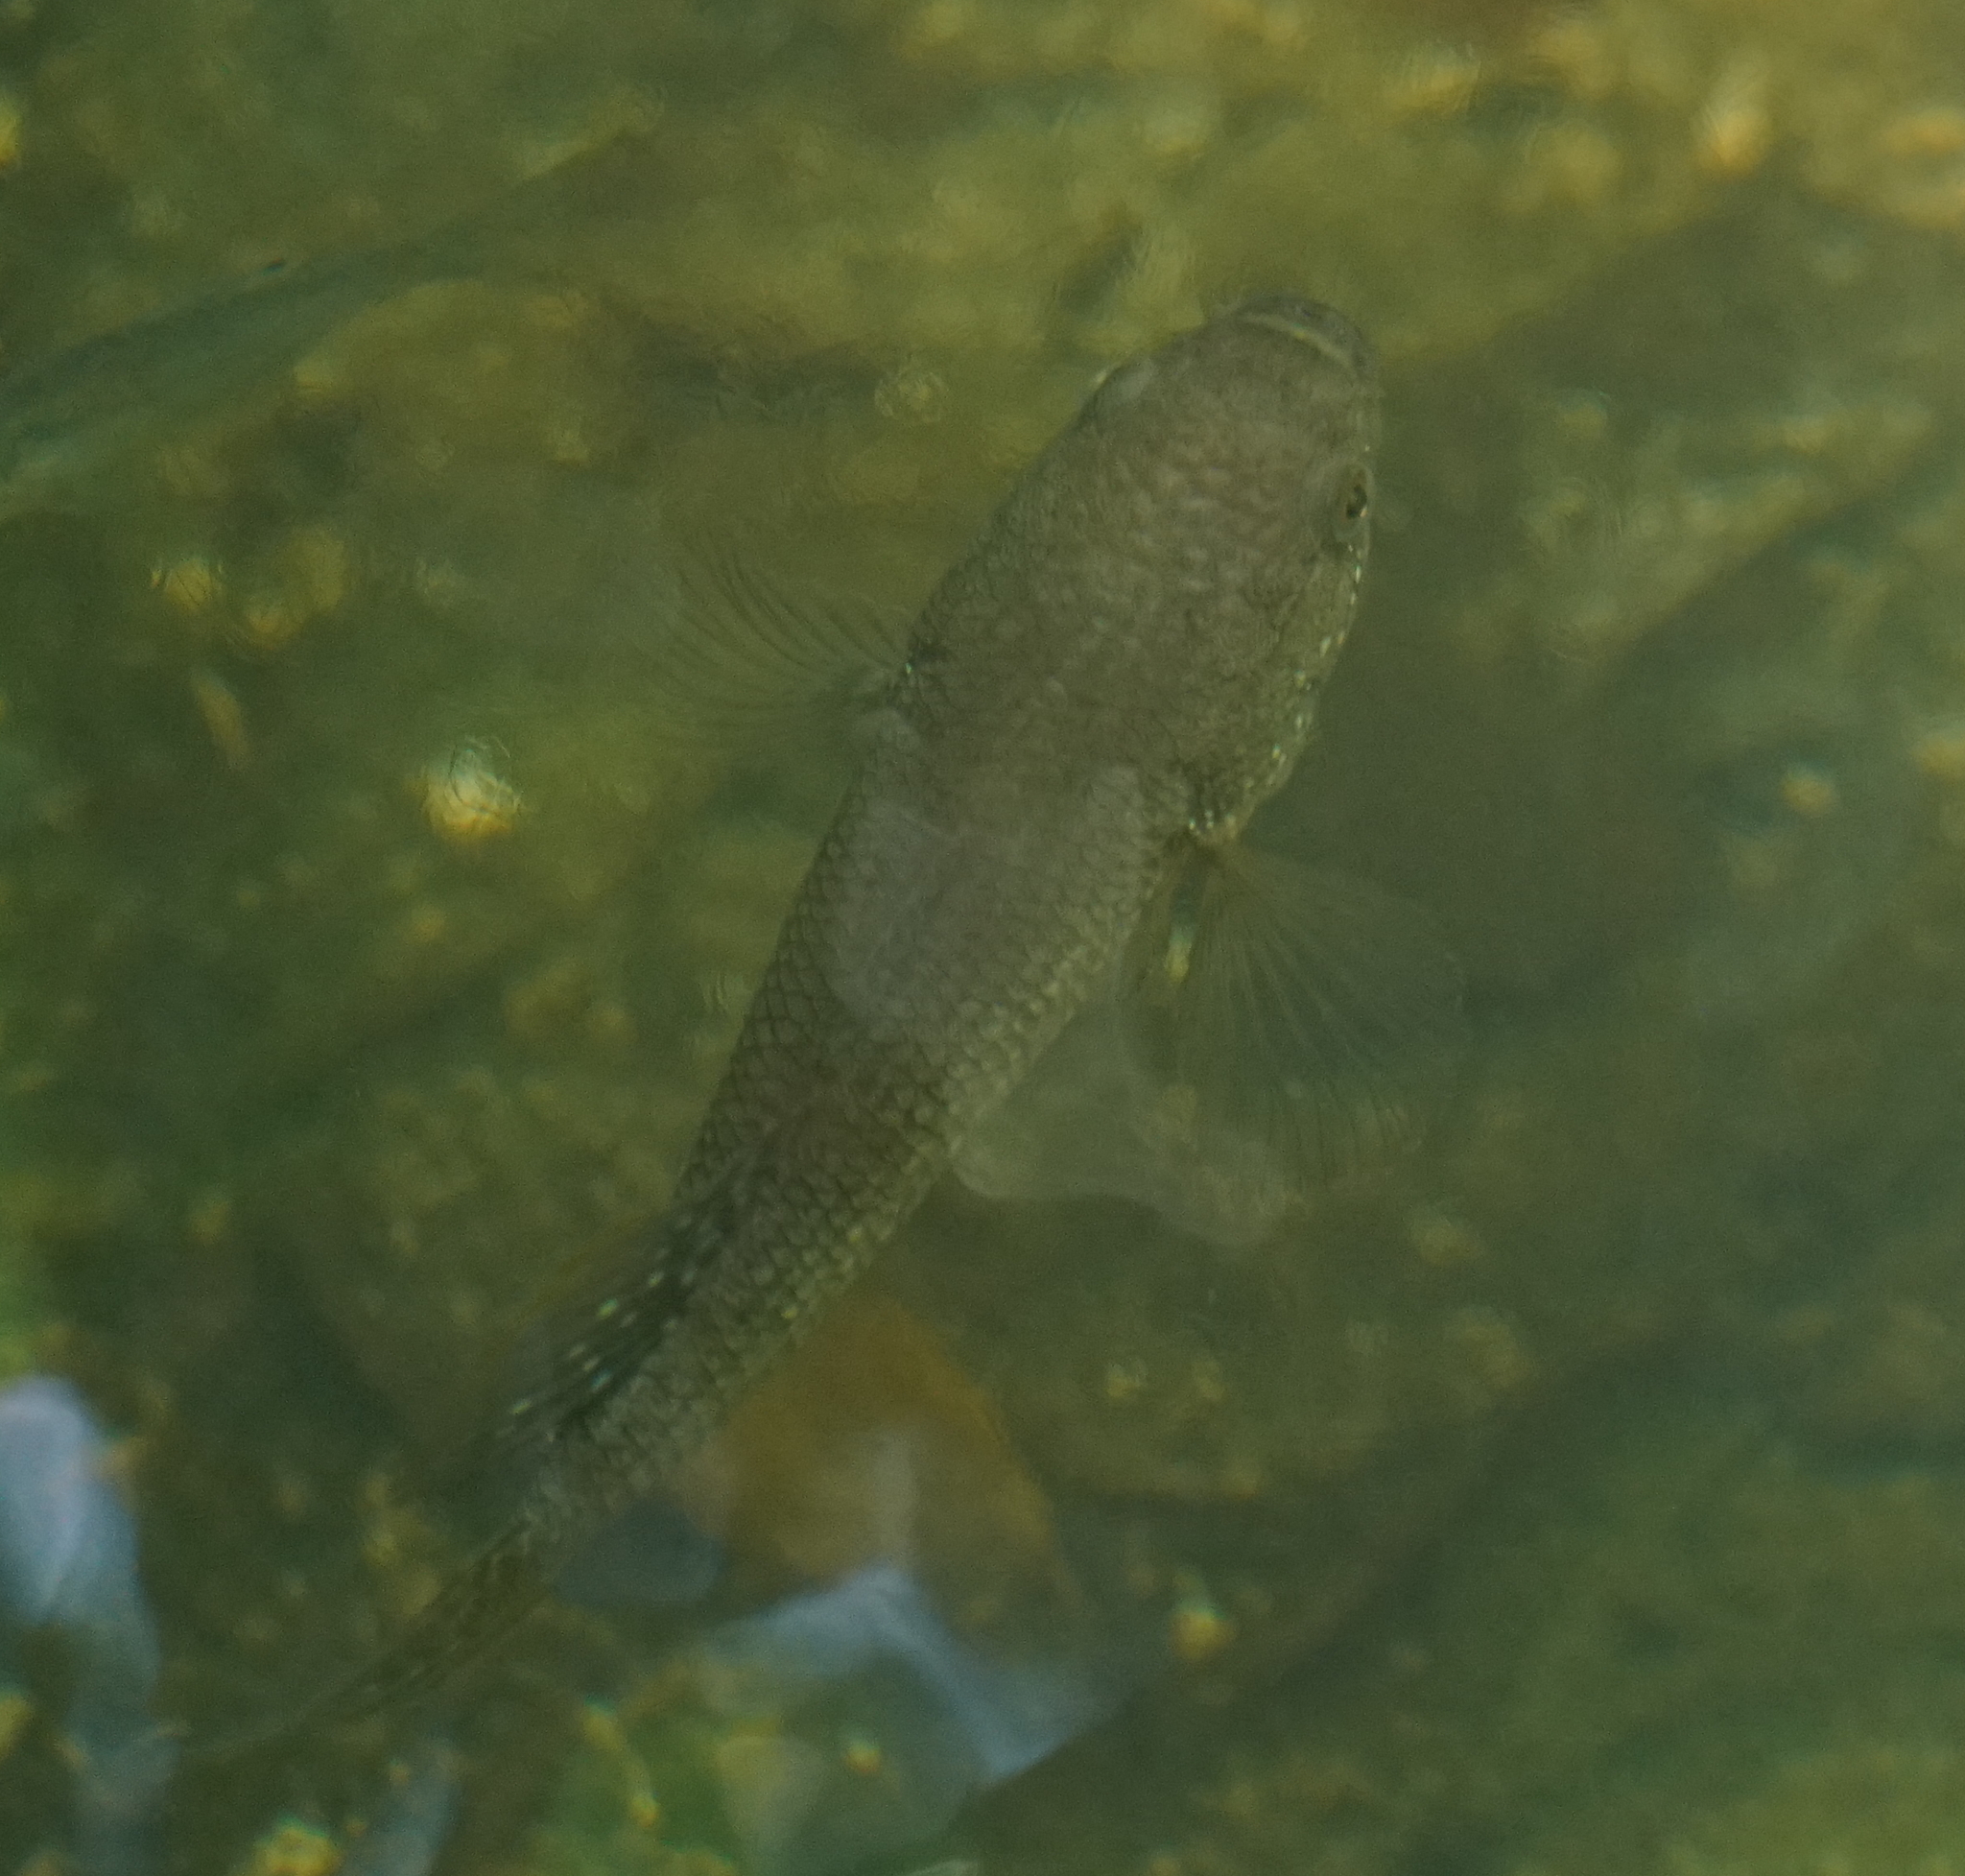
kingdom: Animalia
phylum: Chordata
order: Perciformes
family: Eleotridae
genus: Ophiocara
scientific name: Ophiocara porocephala
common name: Spangled gudgeon
